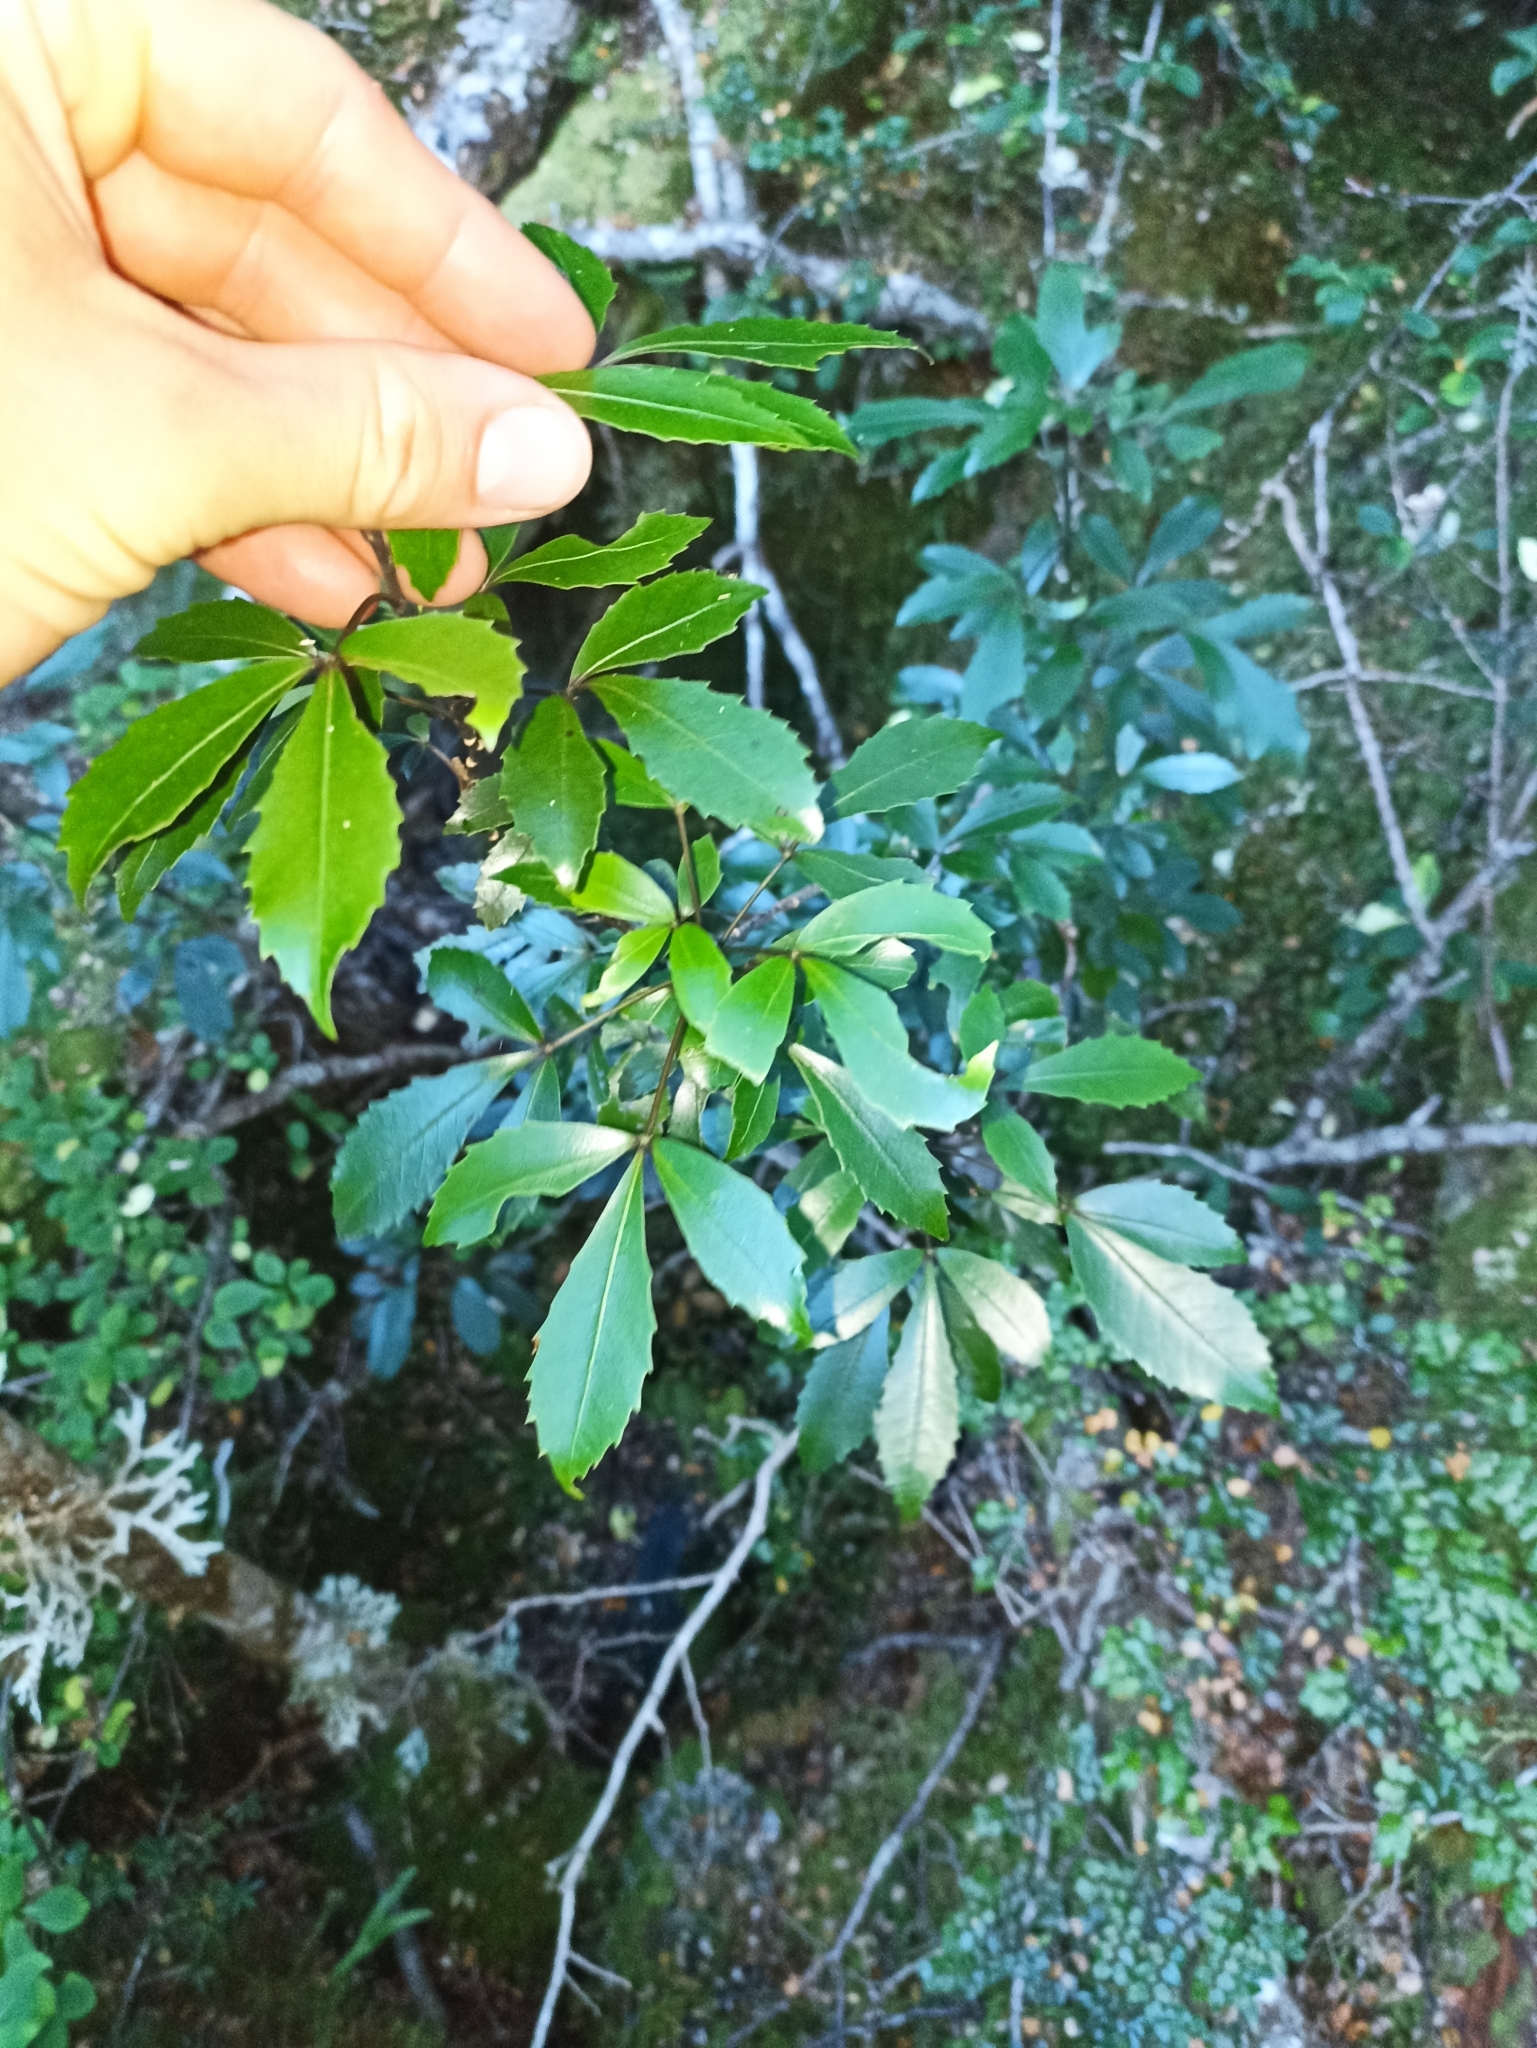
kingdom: Plantae
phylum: Tracheophyta
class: Magnoliopsida
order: Apiales
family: Araliaceae
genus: Raukaua
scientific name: Raukaua simplex
